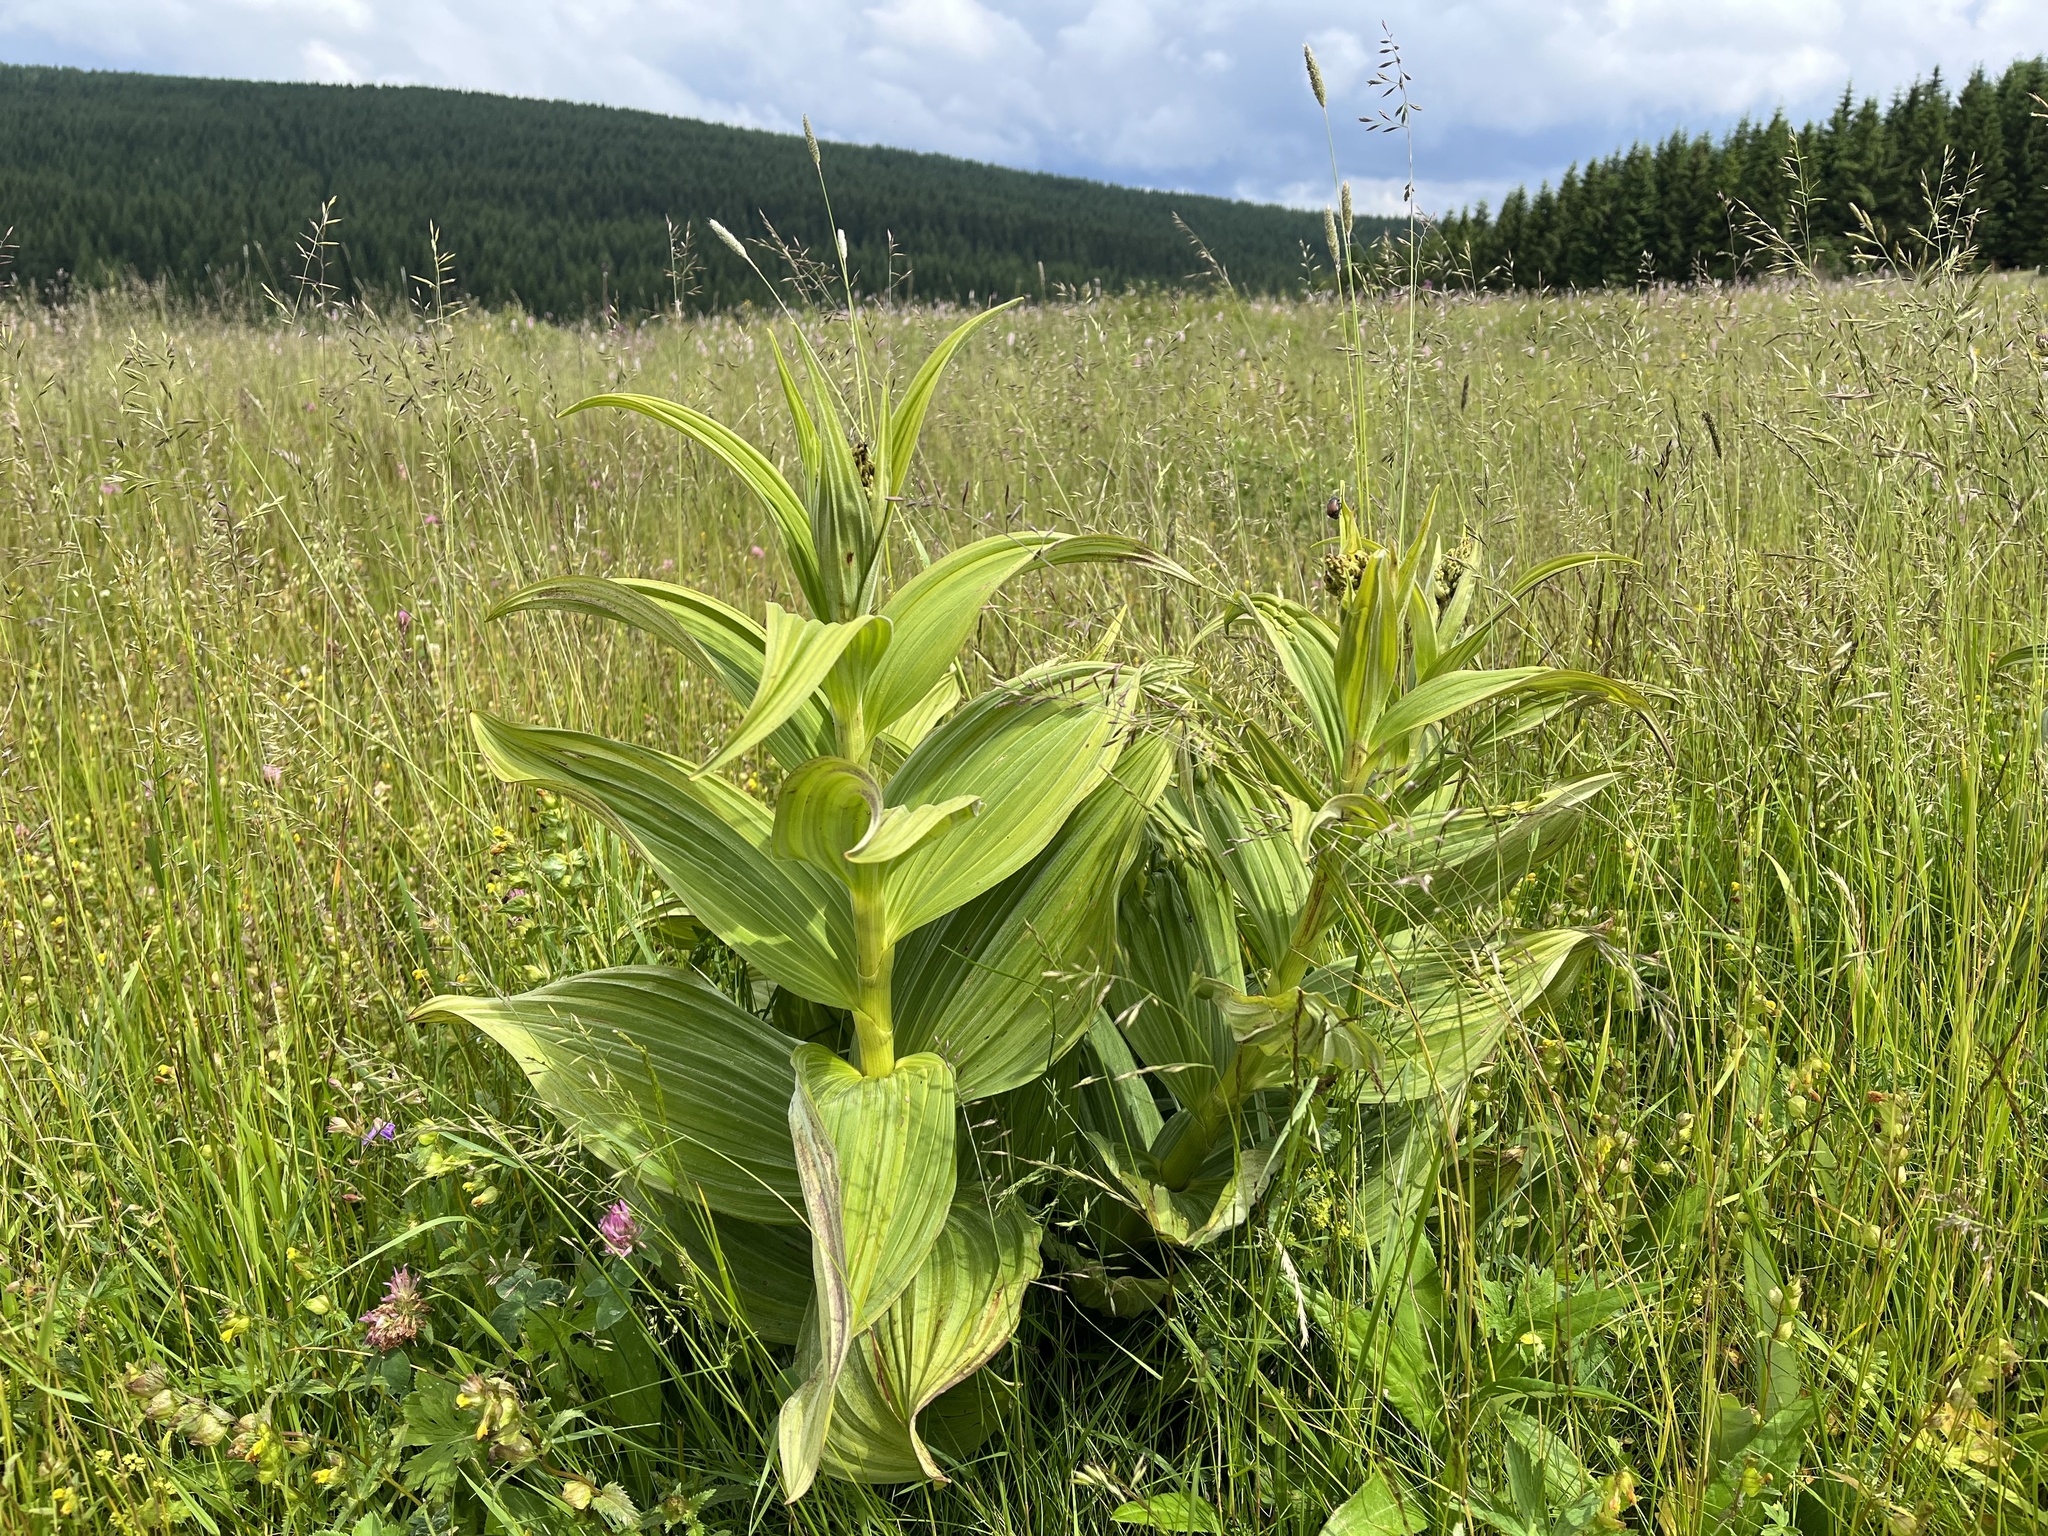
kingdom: Plantae
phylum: Tracheophyta
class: Liliopsida
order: Liliales
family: Melanthiaceae
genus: Veratrum
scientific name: Veratrum lobelianum
